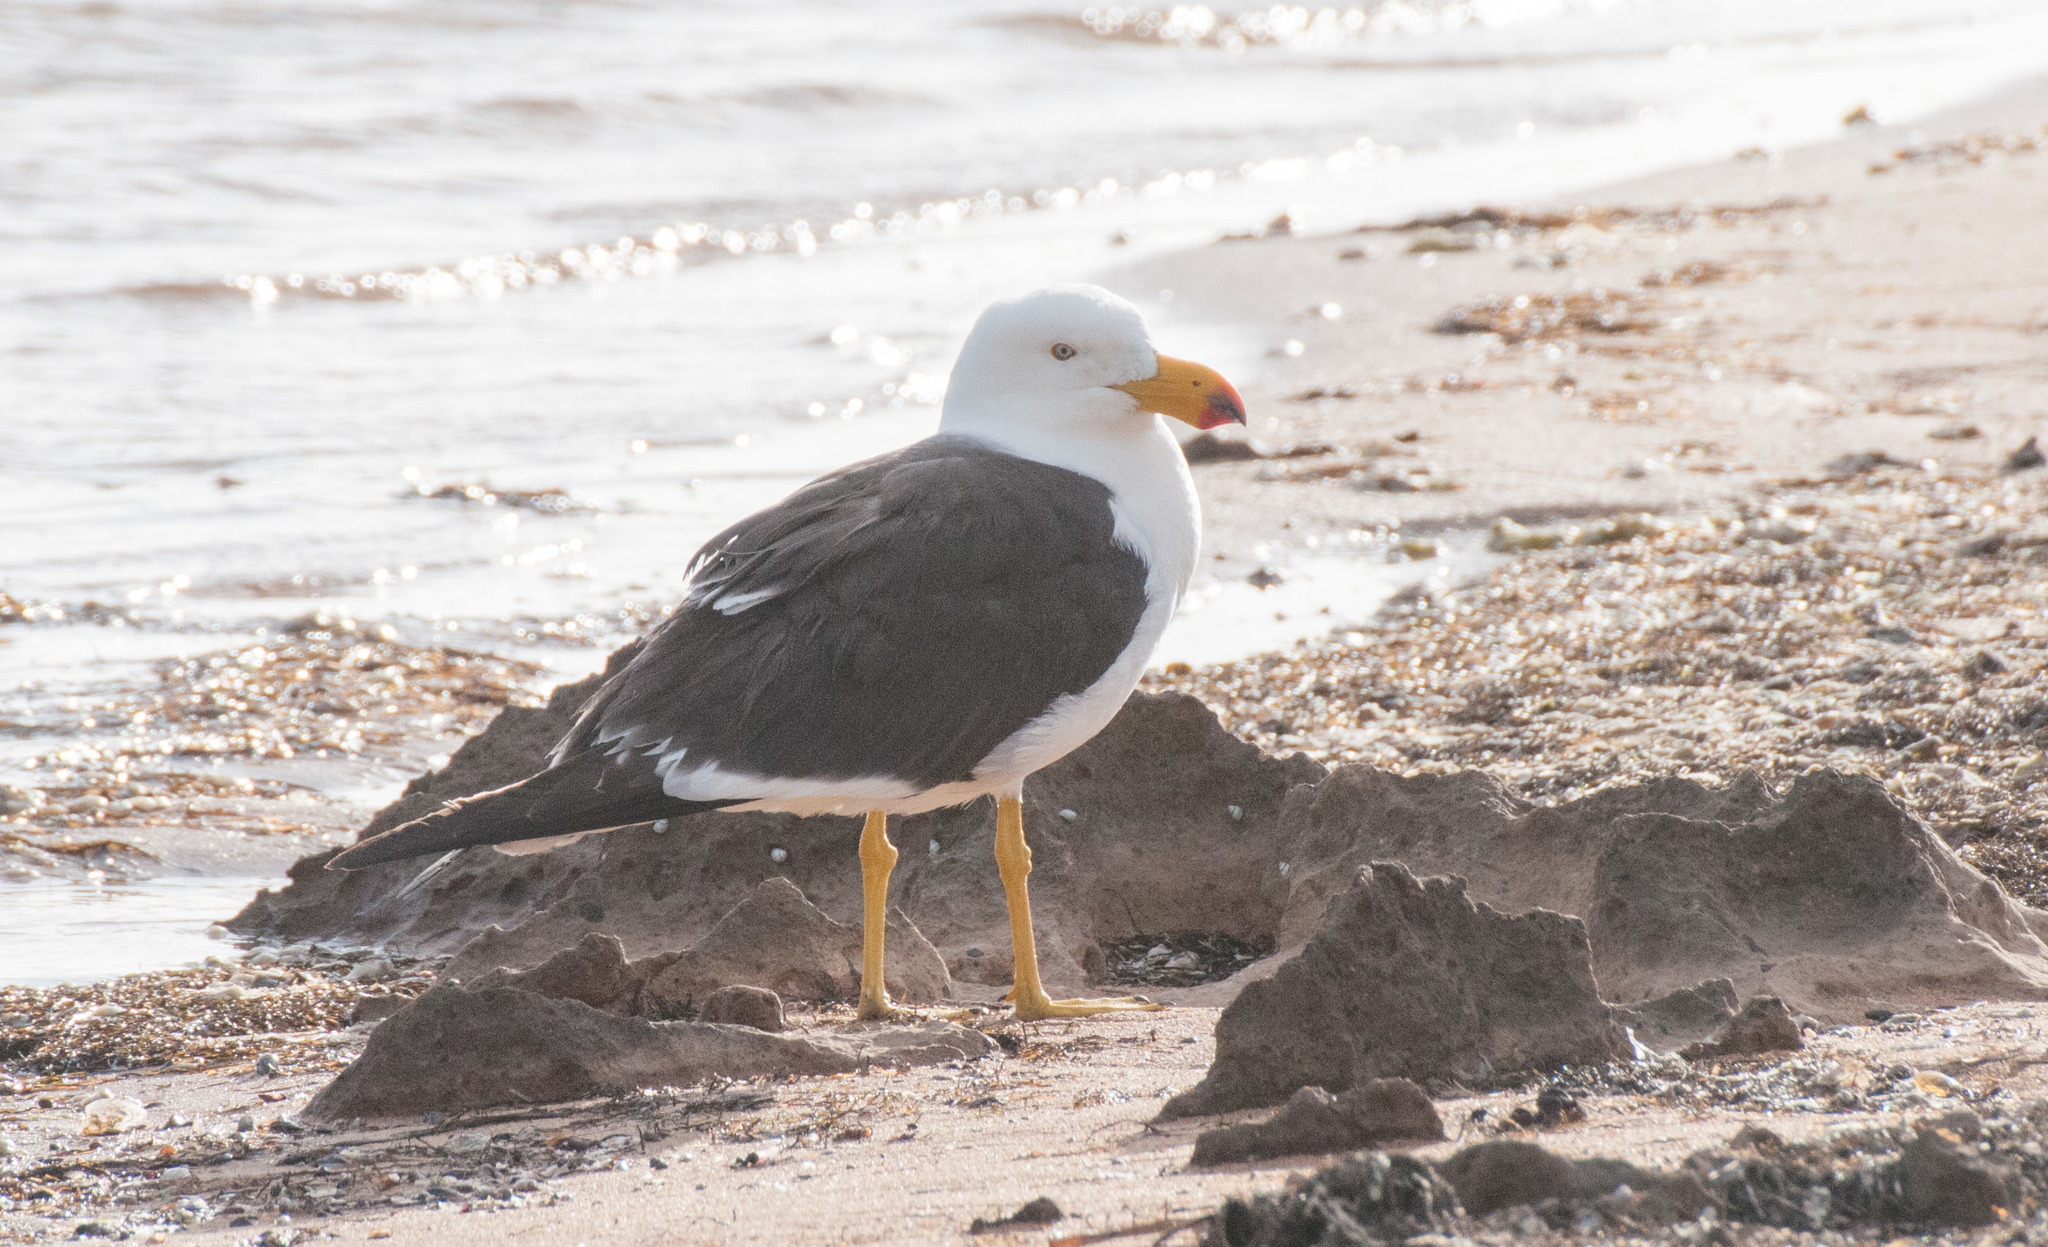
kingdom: Animalia
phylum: Chordata
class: Aves
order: Charadriiformes
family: Laridae
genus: Larus
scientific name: Larus pacificus
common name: Pacific gull
